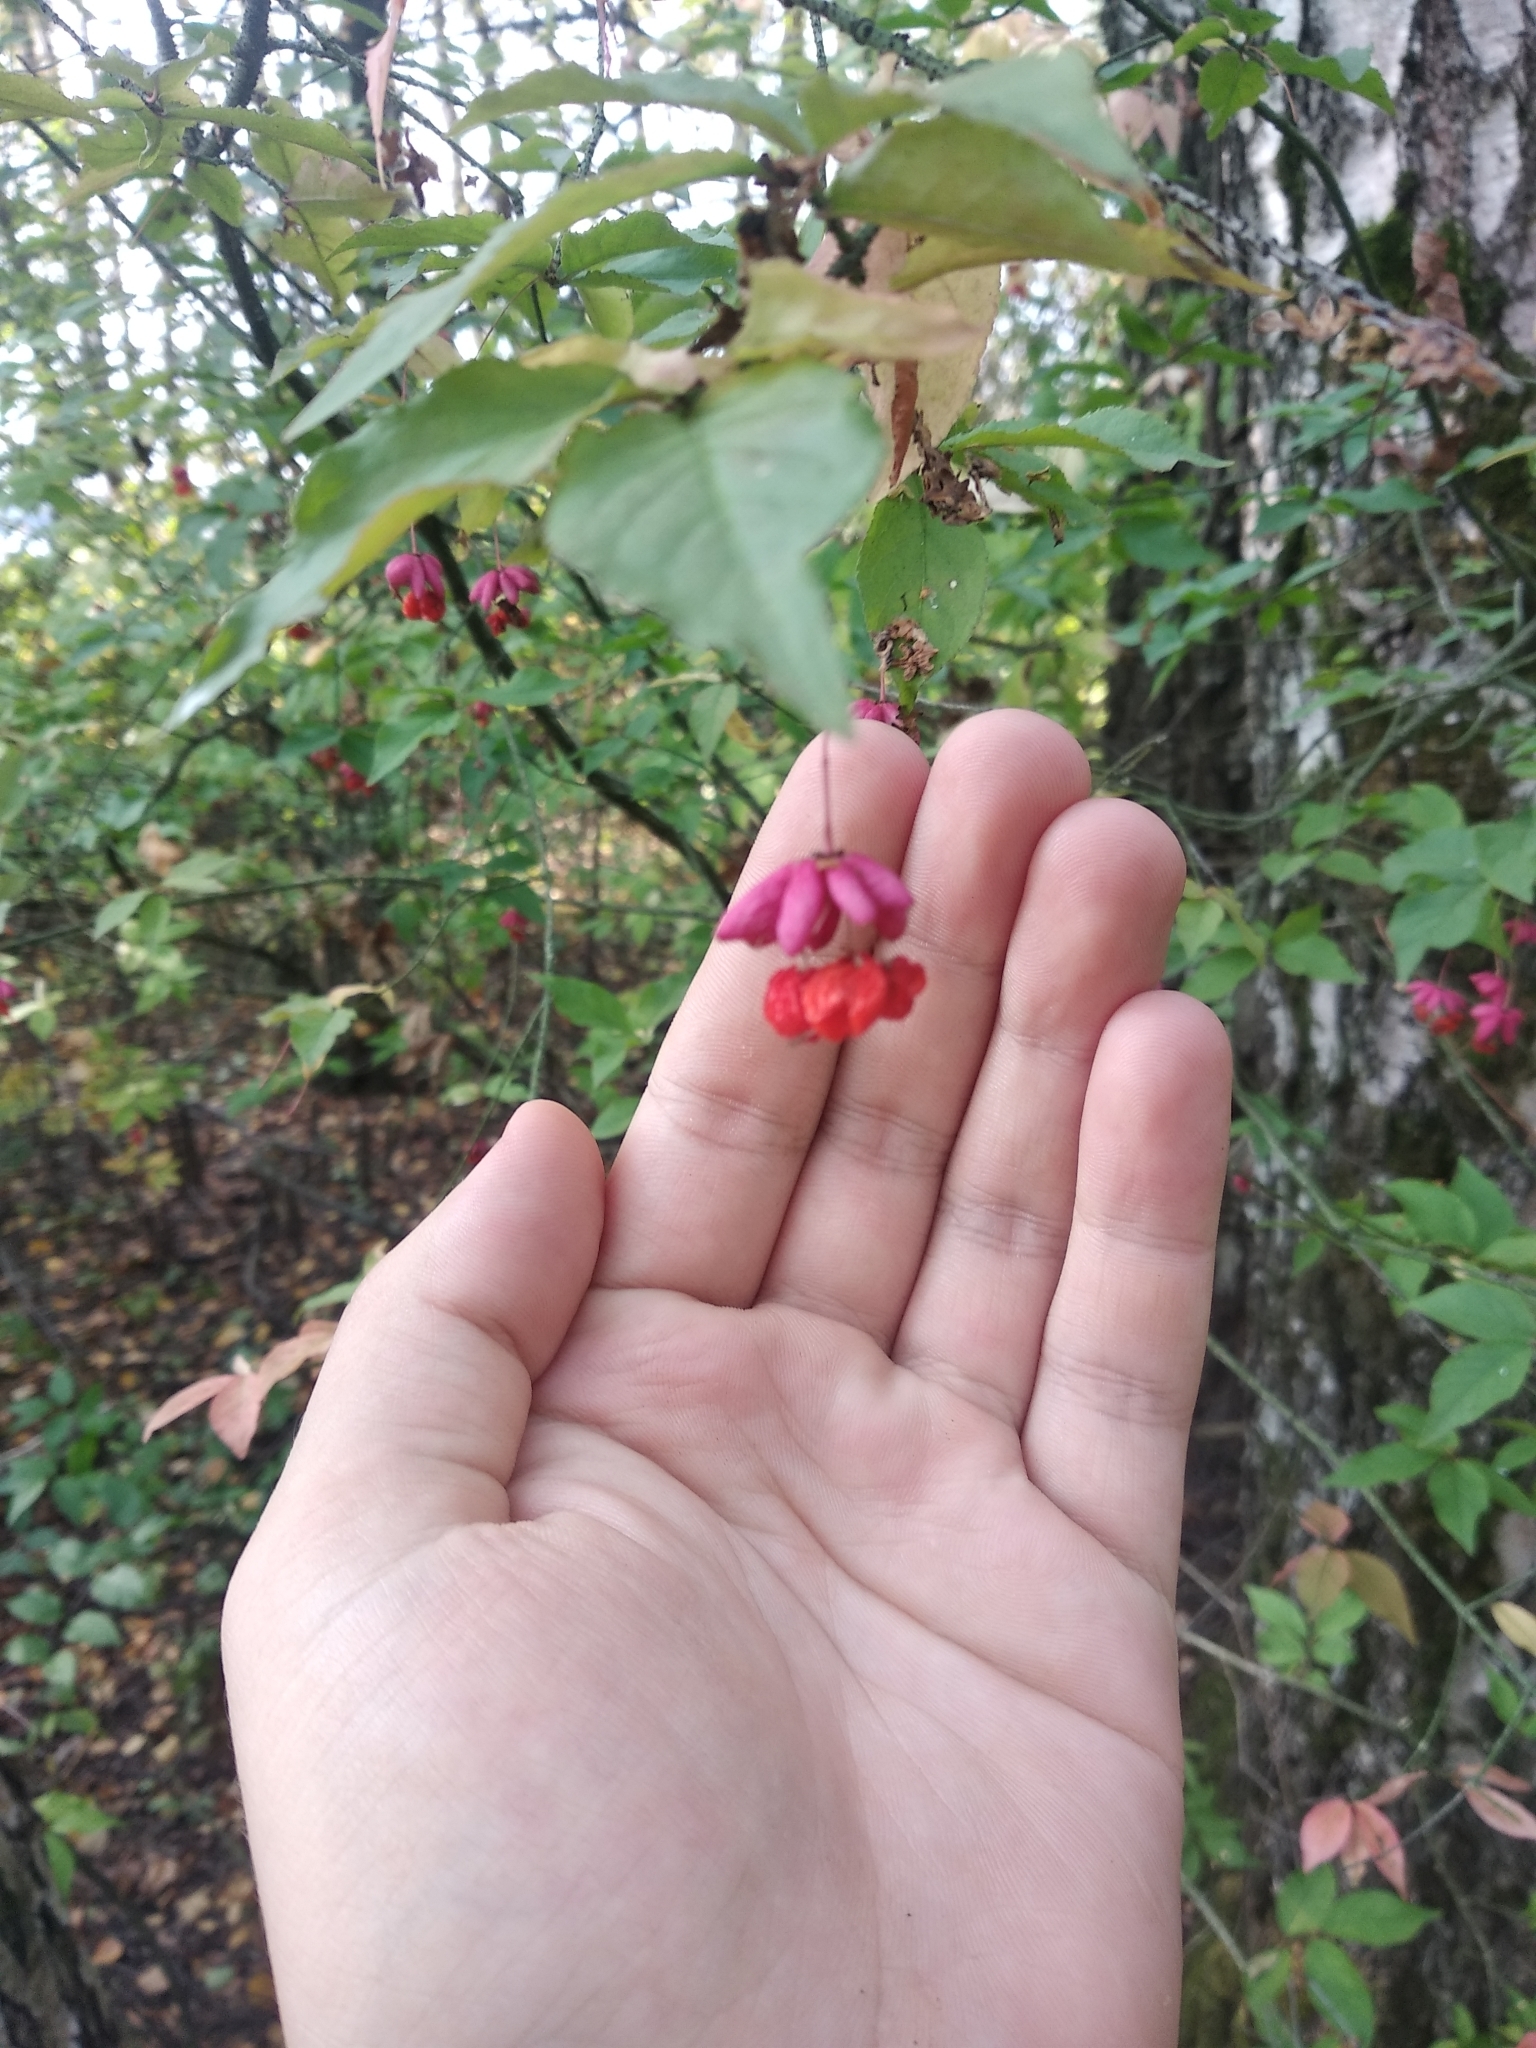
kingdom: Plantae
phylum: Tracheophyta
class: Magnoliopsida
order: Celastrales
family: Celastraceae
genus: Euonymus
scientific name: Euonymus verrucosus
